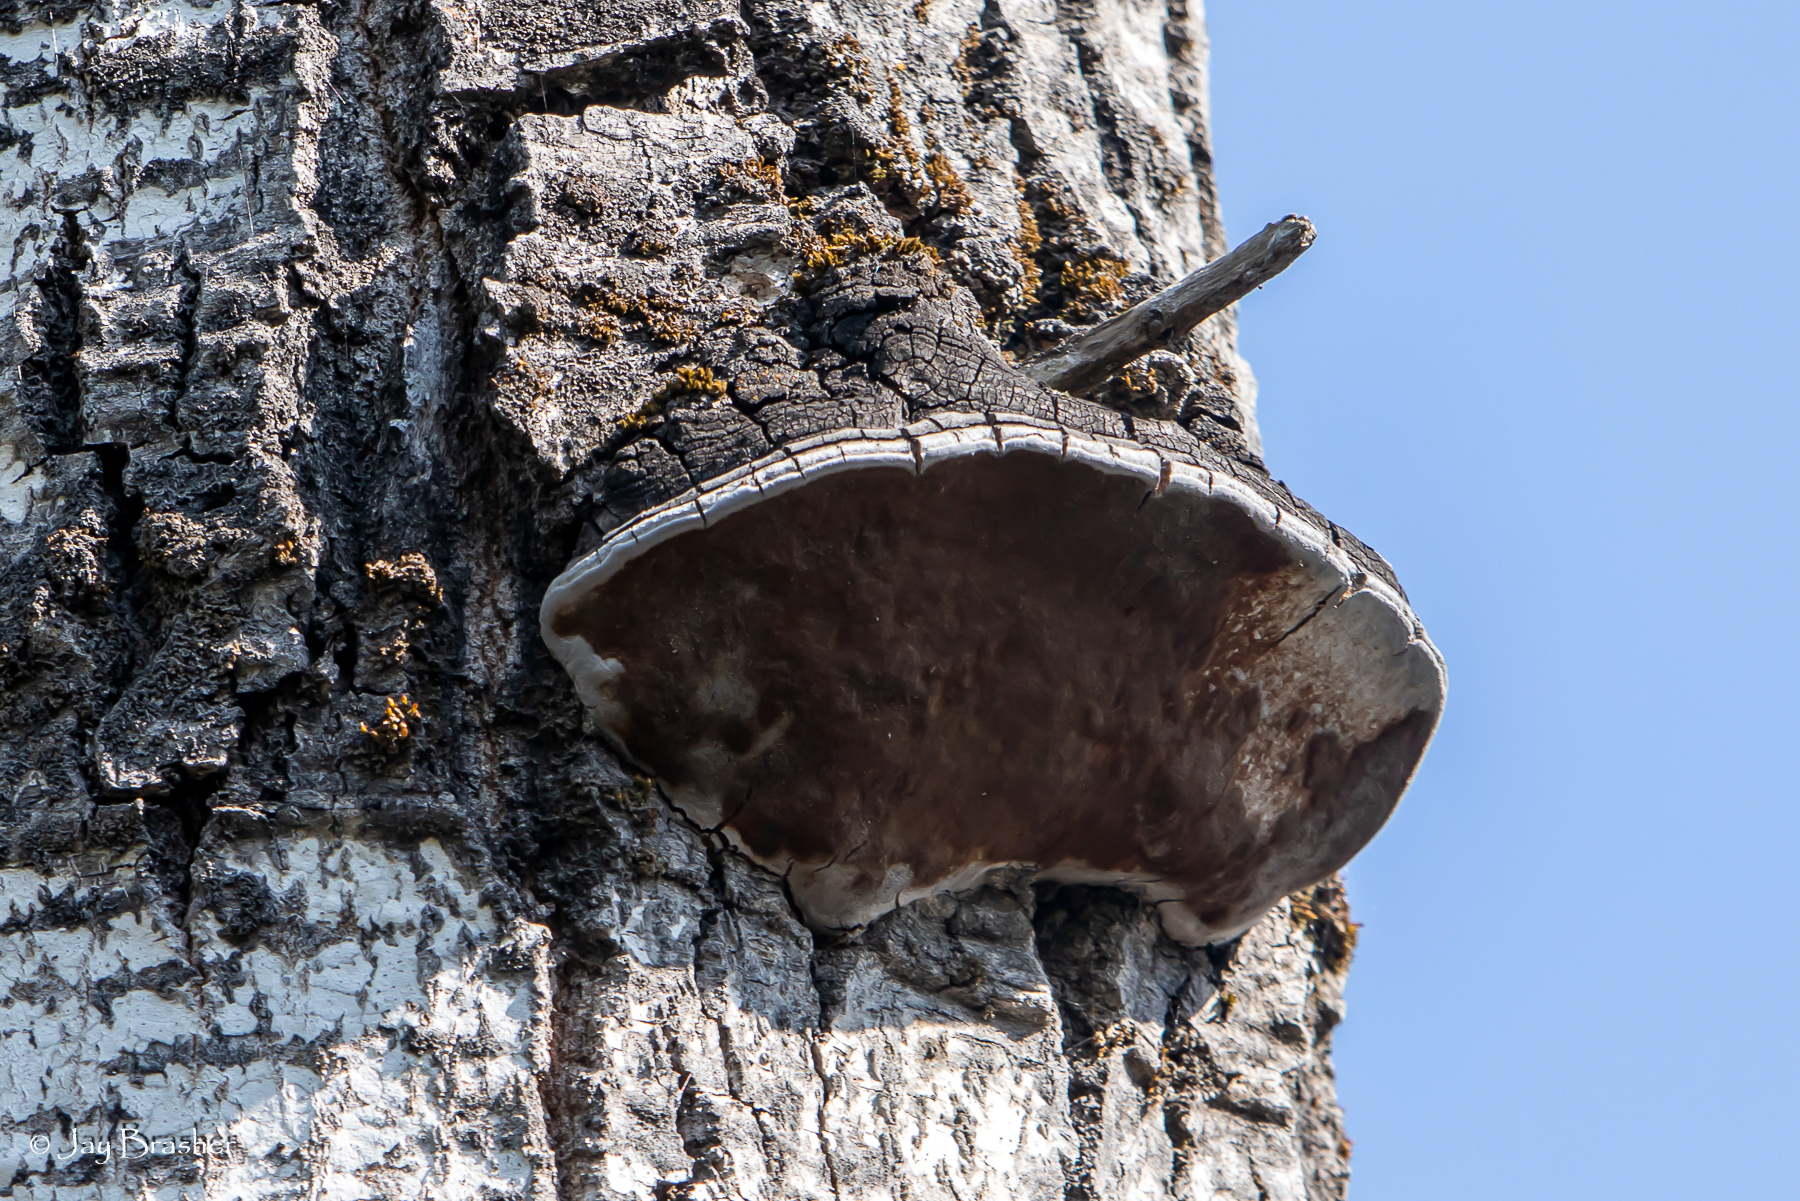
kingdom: Fungi
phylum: Basidiomycota
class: Agaricomycetes
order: Hymenochaetales
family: Hymenochaetaceae
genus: Phellinus
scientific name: Phellinus tremulae
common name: Aspen bracket
